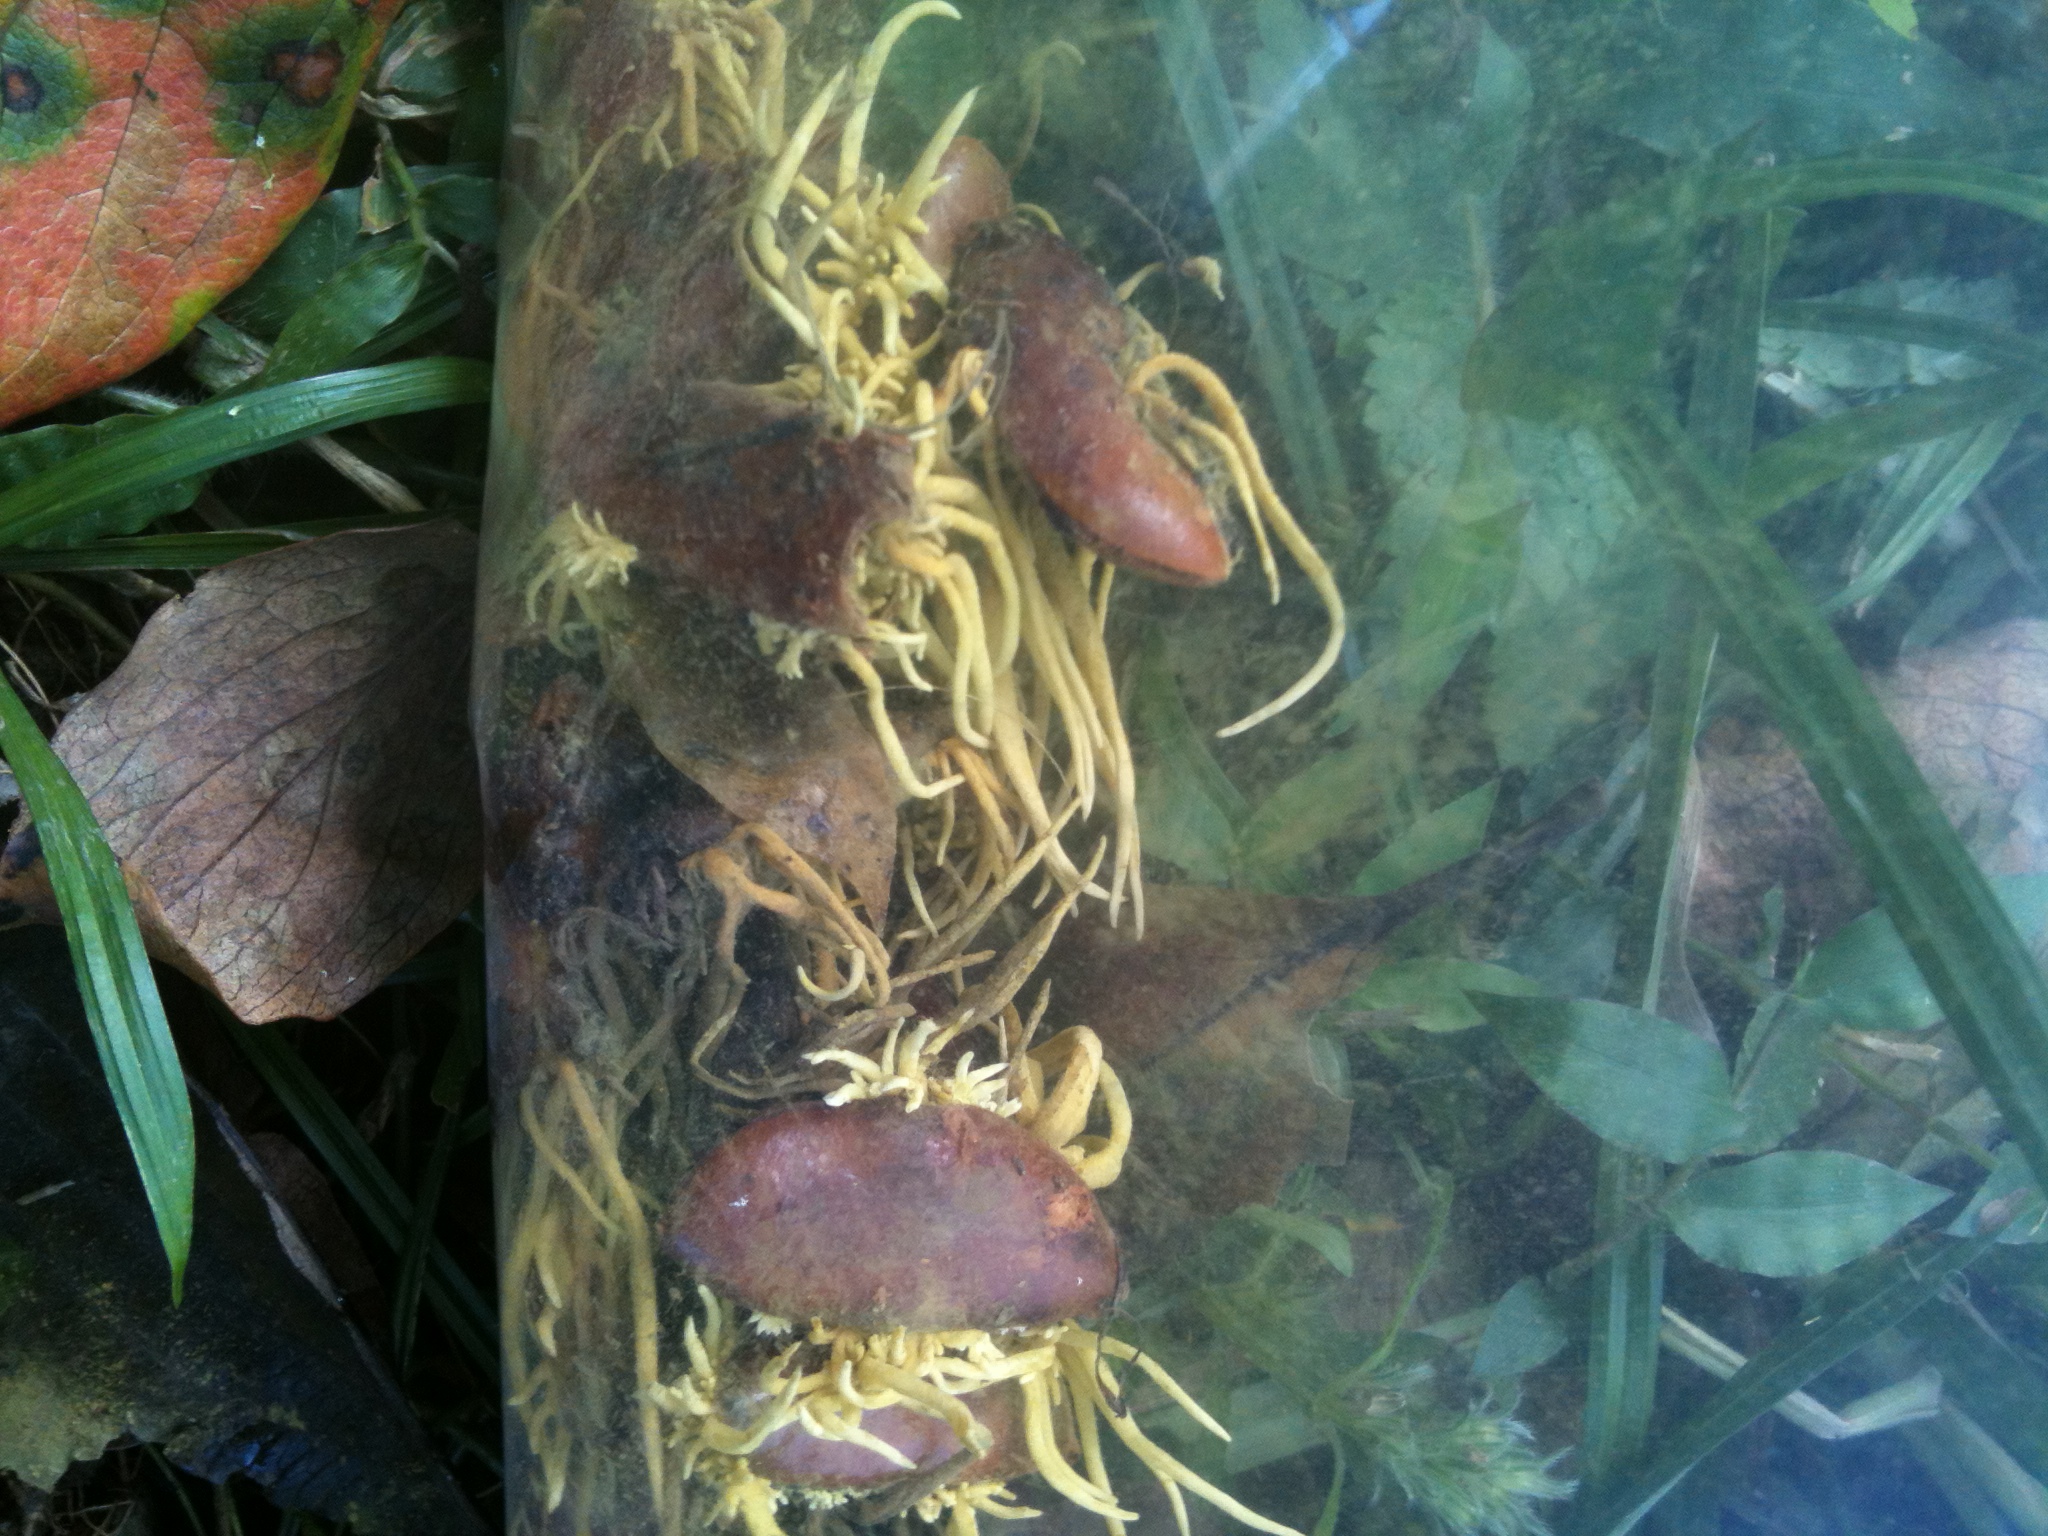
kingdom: Fungi
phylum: Ascomycota
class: Eurotiomycetes
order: Eurotiales
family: Aspergillaceae
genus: Penicilliopsis
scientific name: Penicilliopsis clavariiformis
